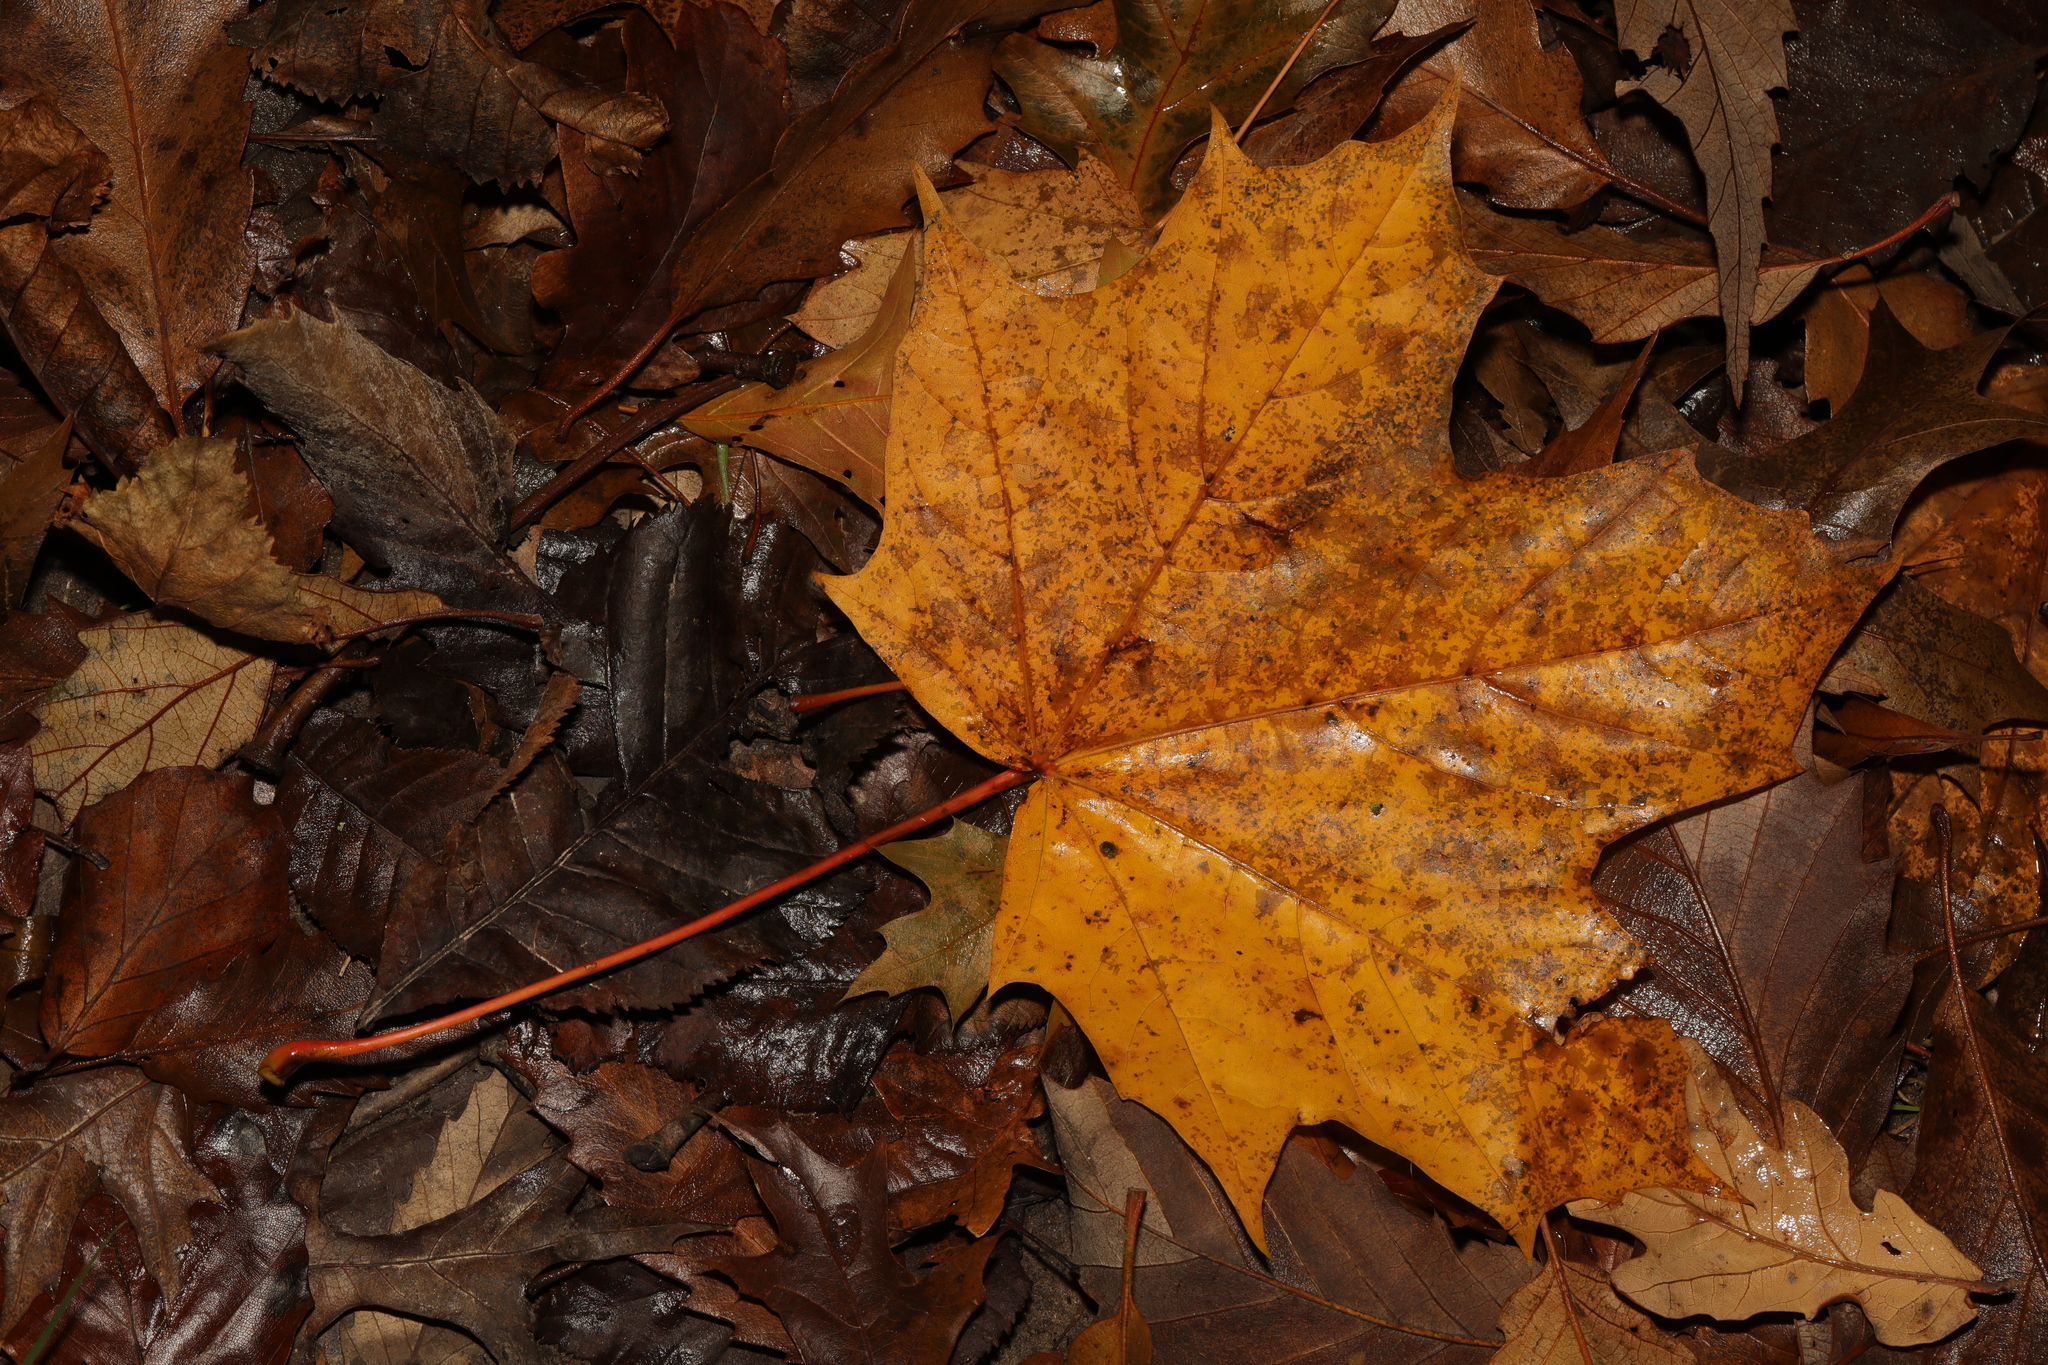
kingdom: Plantae
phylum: Tracheophyta
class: Magnoliopsida
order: Sapindales
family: Sapindaceae
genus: Acer
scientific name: Acer platanoides
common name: Norway maple
